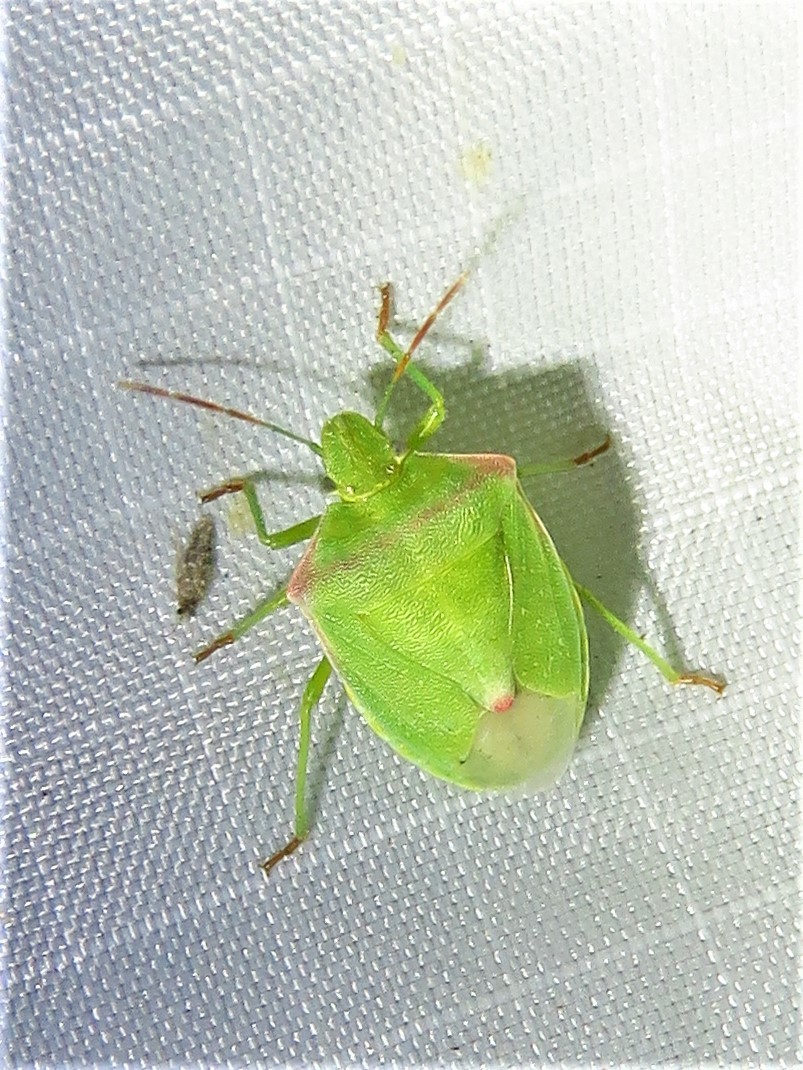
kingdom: Animalia
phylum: Arthropoda
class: Insecta
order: Hemiptera
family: Pentatomidae
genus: Thyanta
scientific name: Thyanta custator
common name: Stink bug
